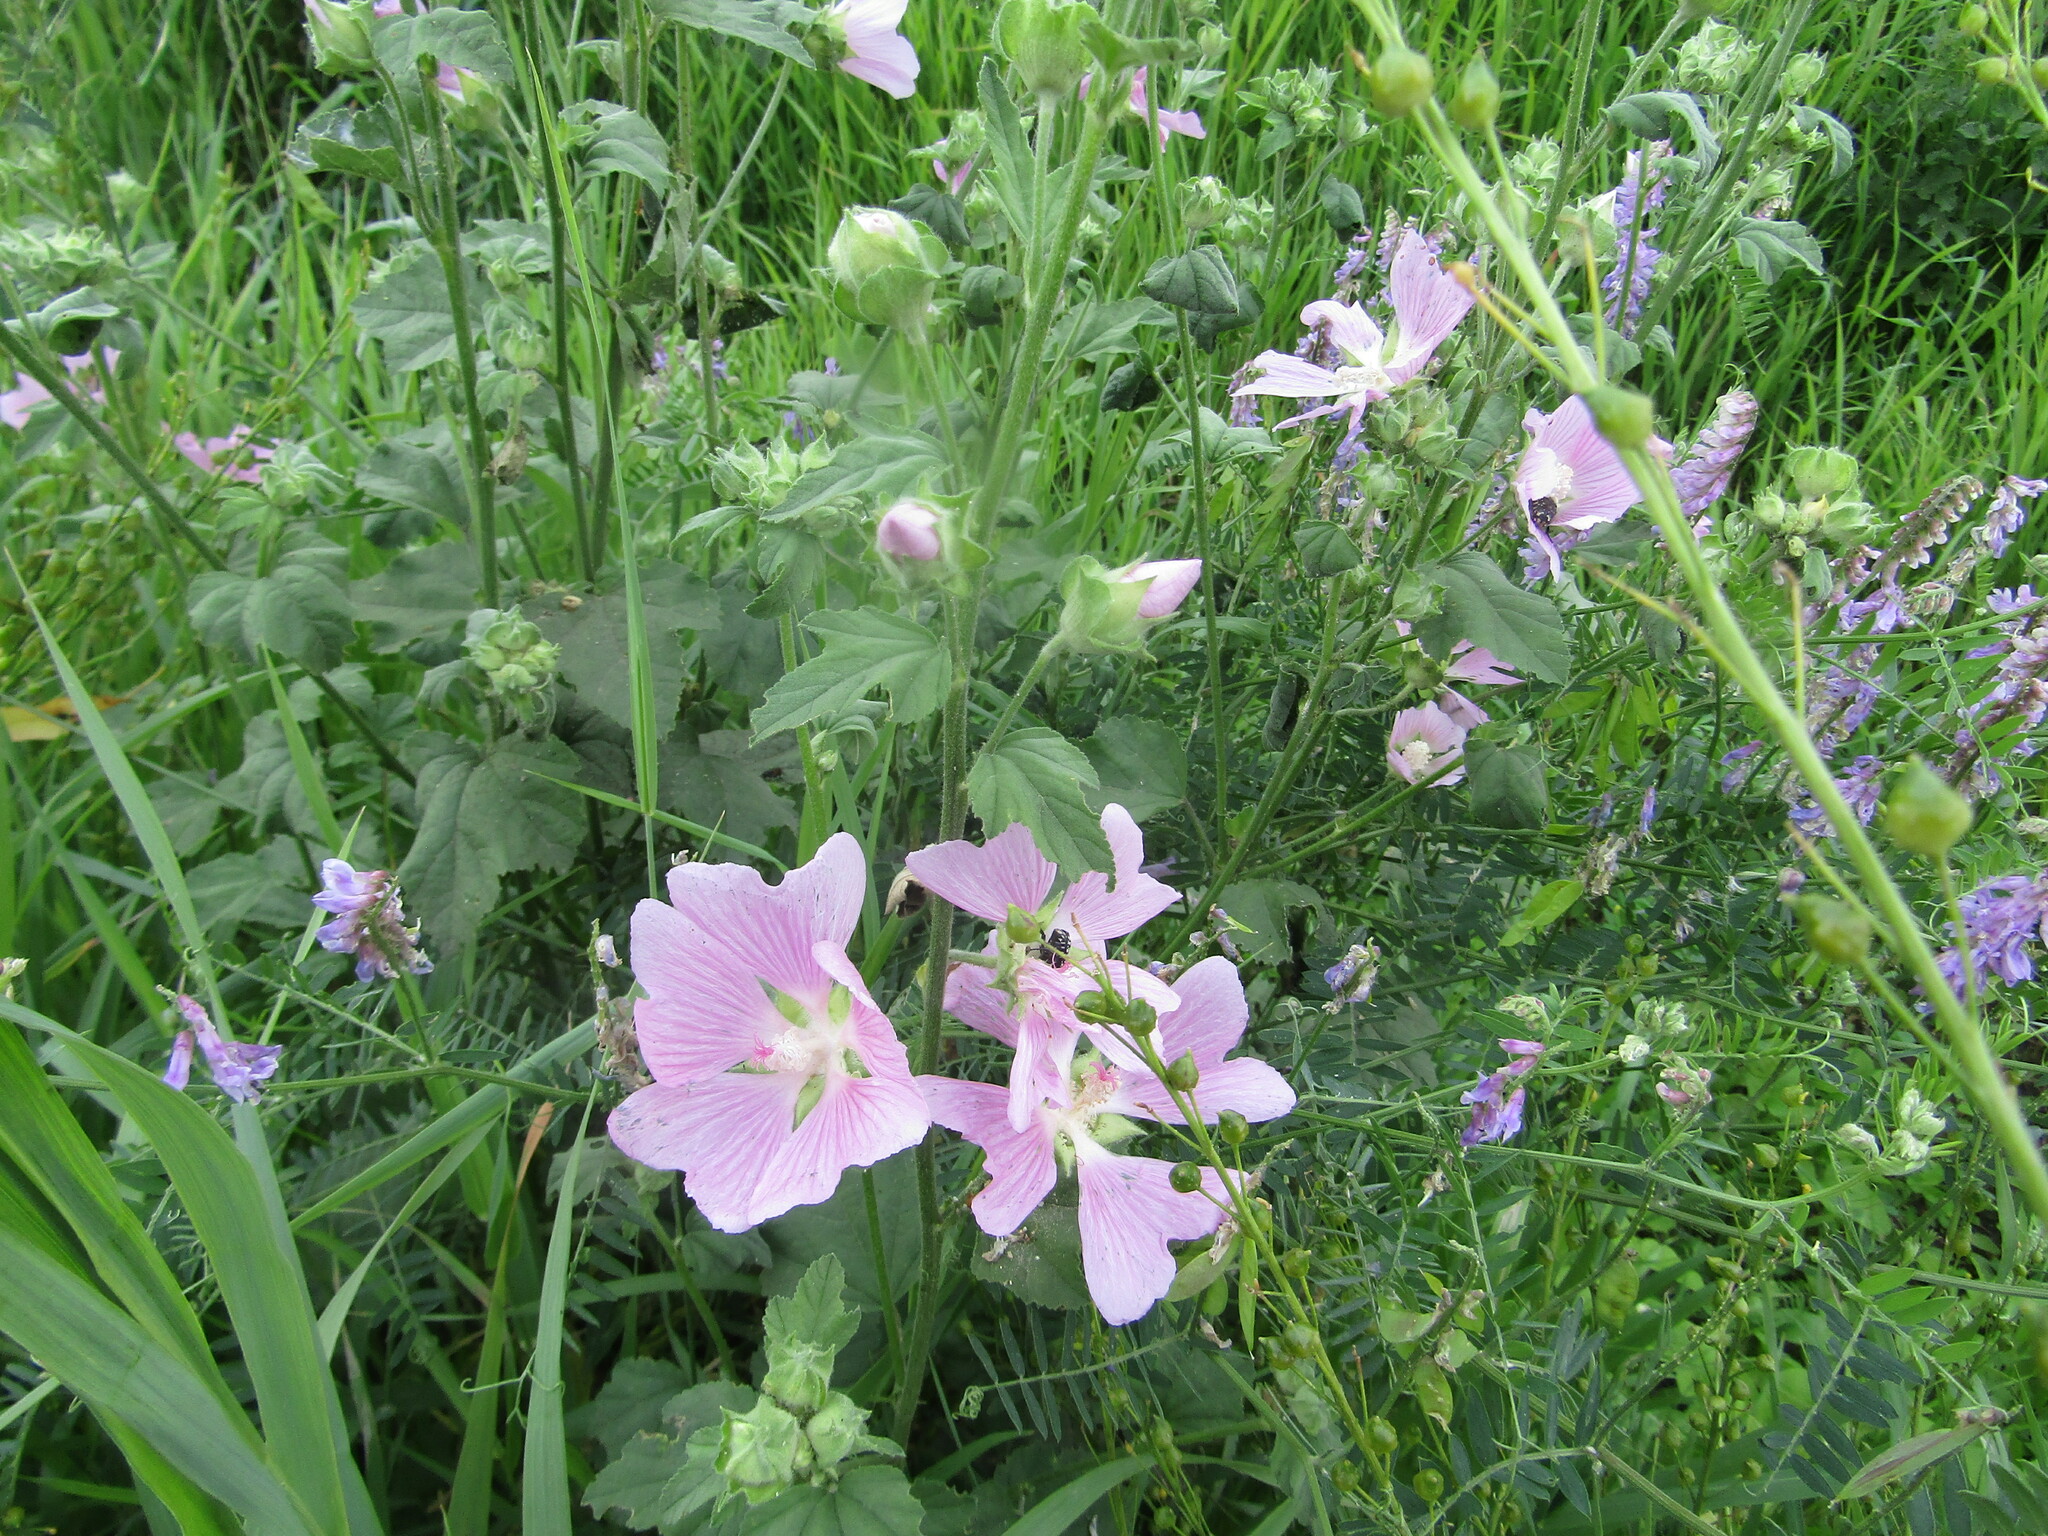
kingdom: Plantae
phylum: Tracheophyta
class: Magnoliopsida
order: Malvales
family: Malvaceae
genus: Malva
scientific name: Malva thuringiaca
